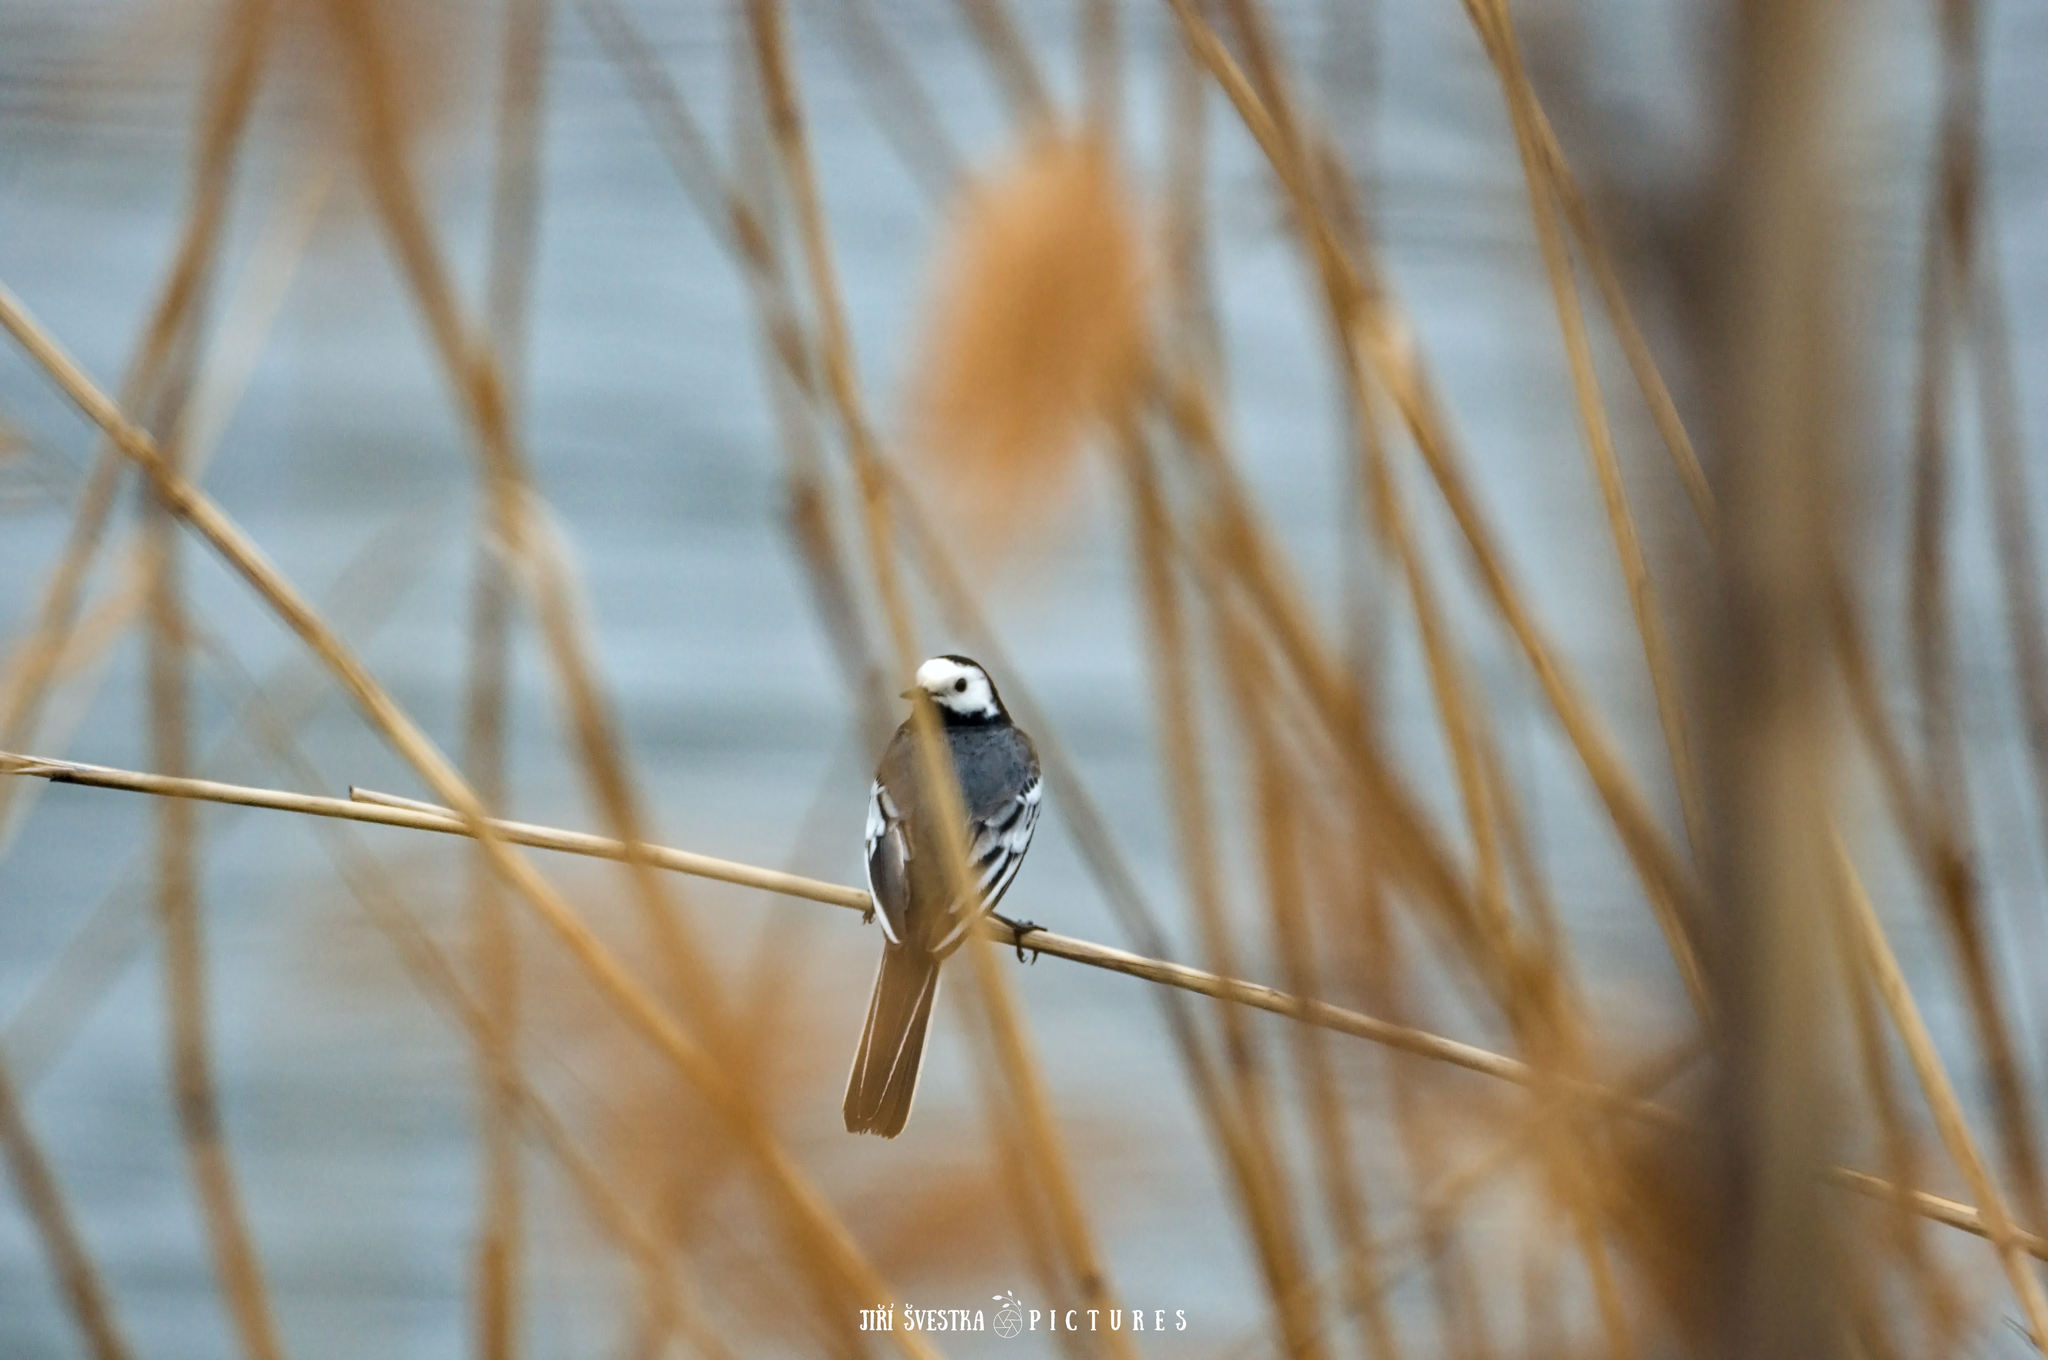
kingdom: Animalia
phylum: Chordata
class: Aves
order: Passeriformes
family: Motacillidae
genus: Motacilla
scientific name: Motacilla alba
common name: White wagtail
